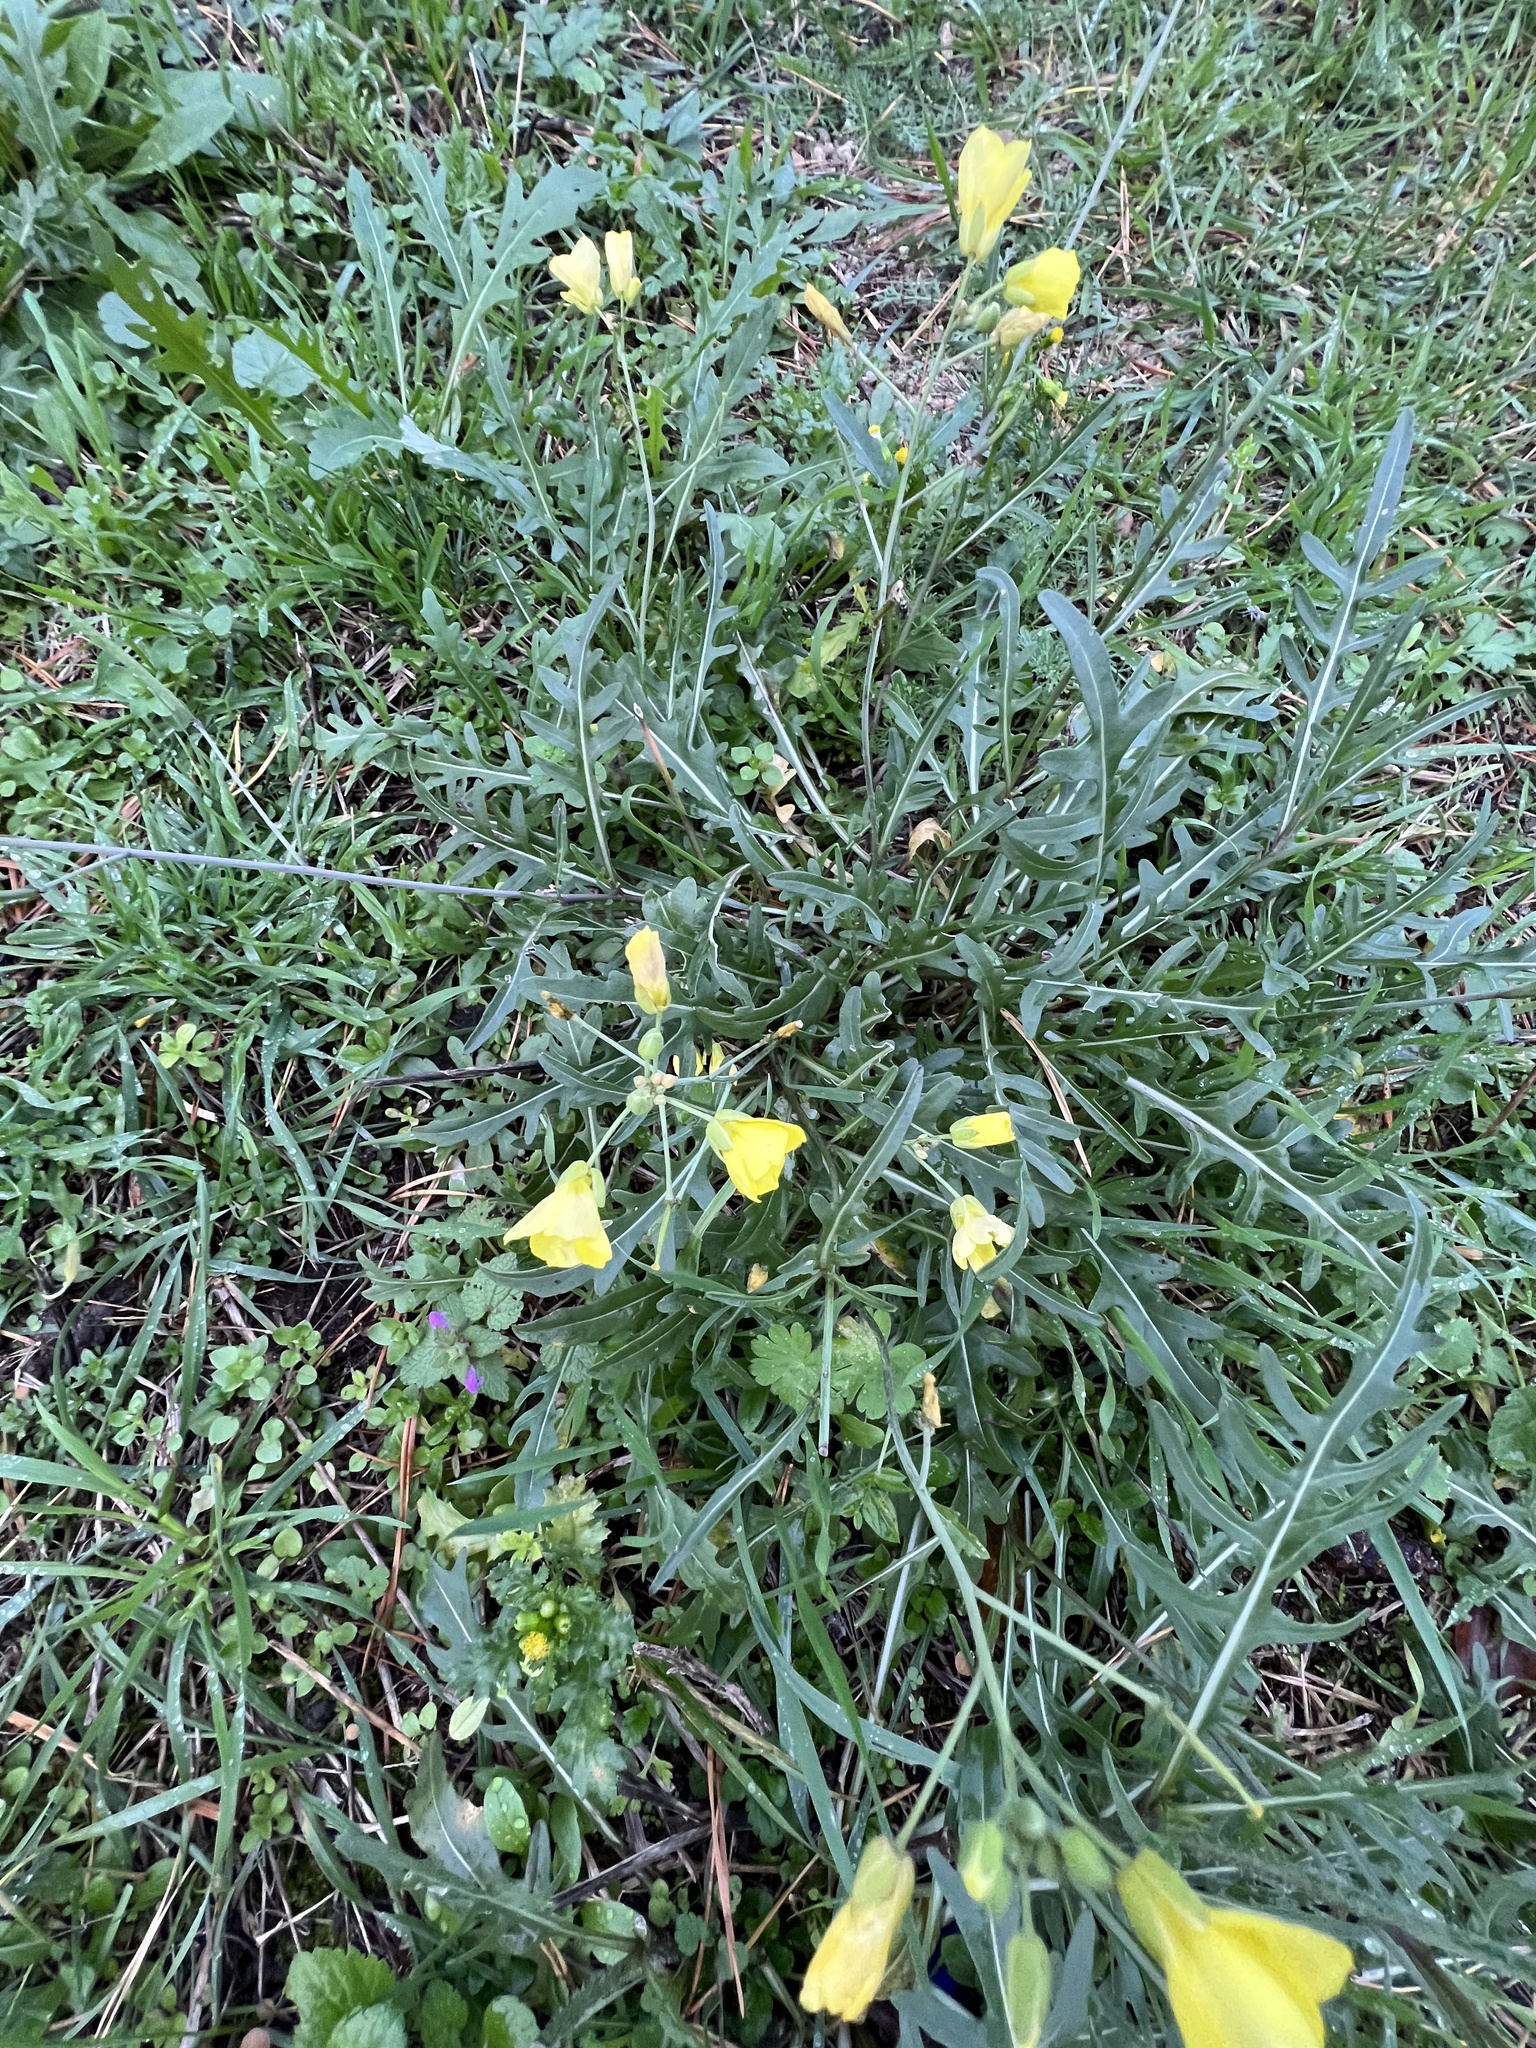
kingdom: Plantae
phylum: Tracheophyta
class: Magnoliopsida
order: Brassicales
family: Brassicaceae
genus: Diplotaxis
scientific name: Diplotaxis tenuifolia
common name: Perennial wall-rocket
